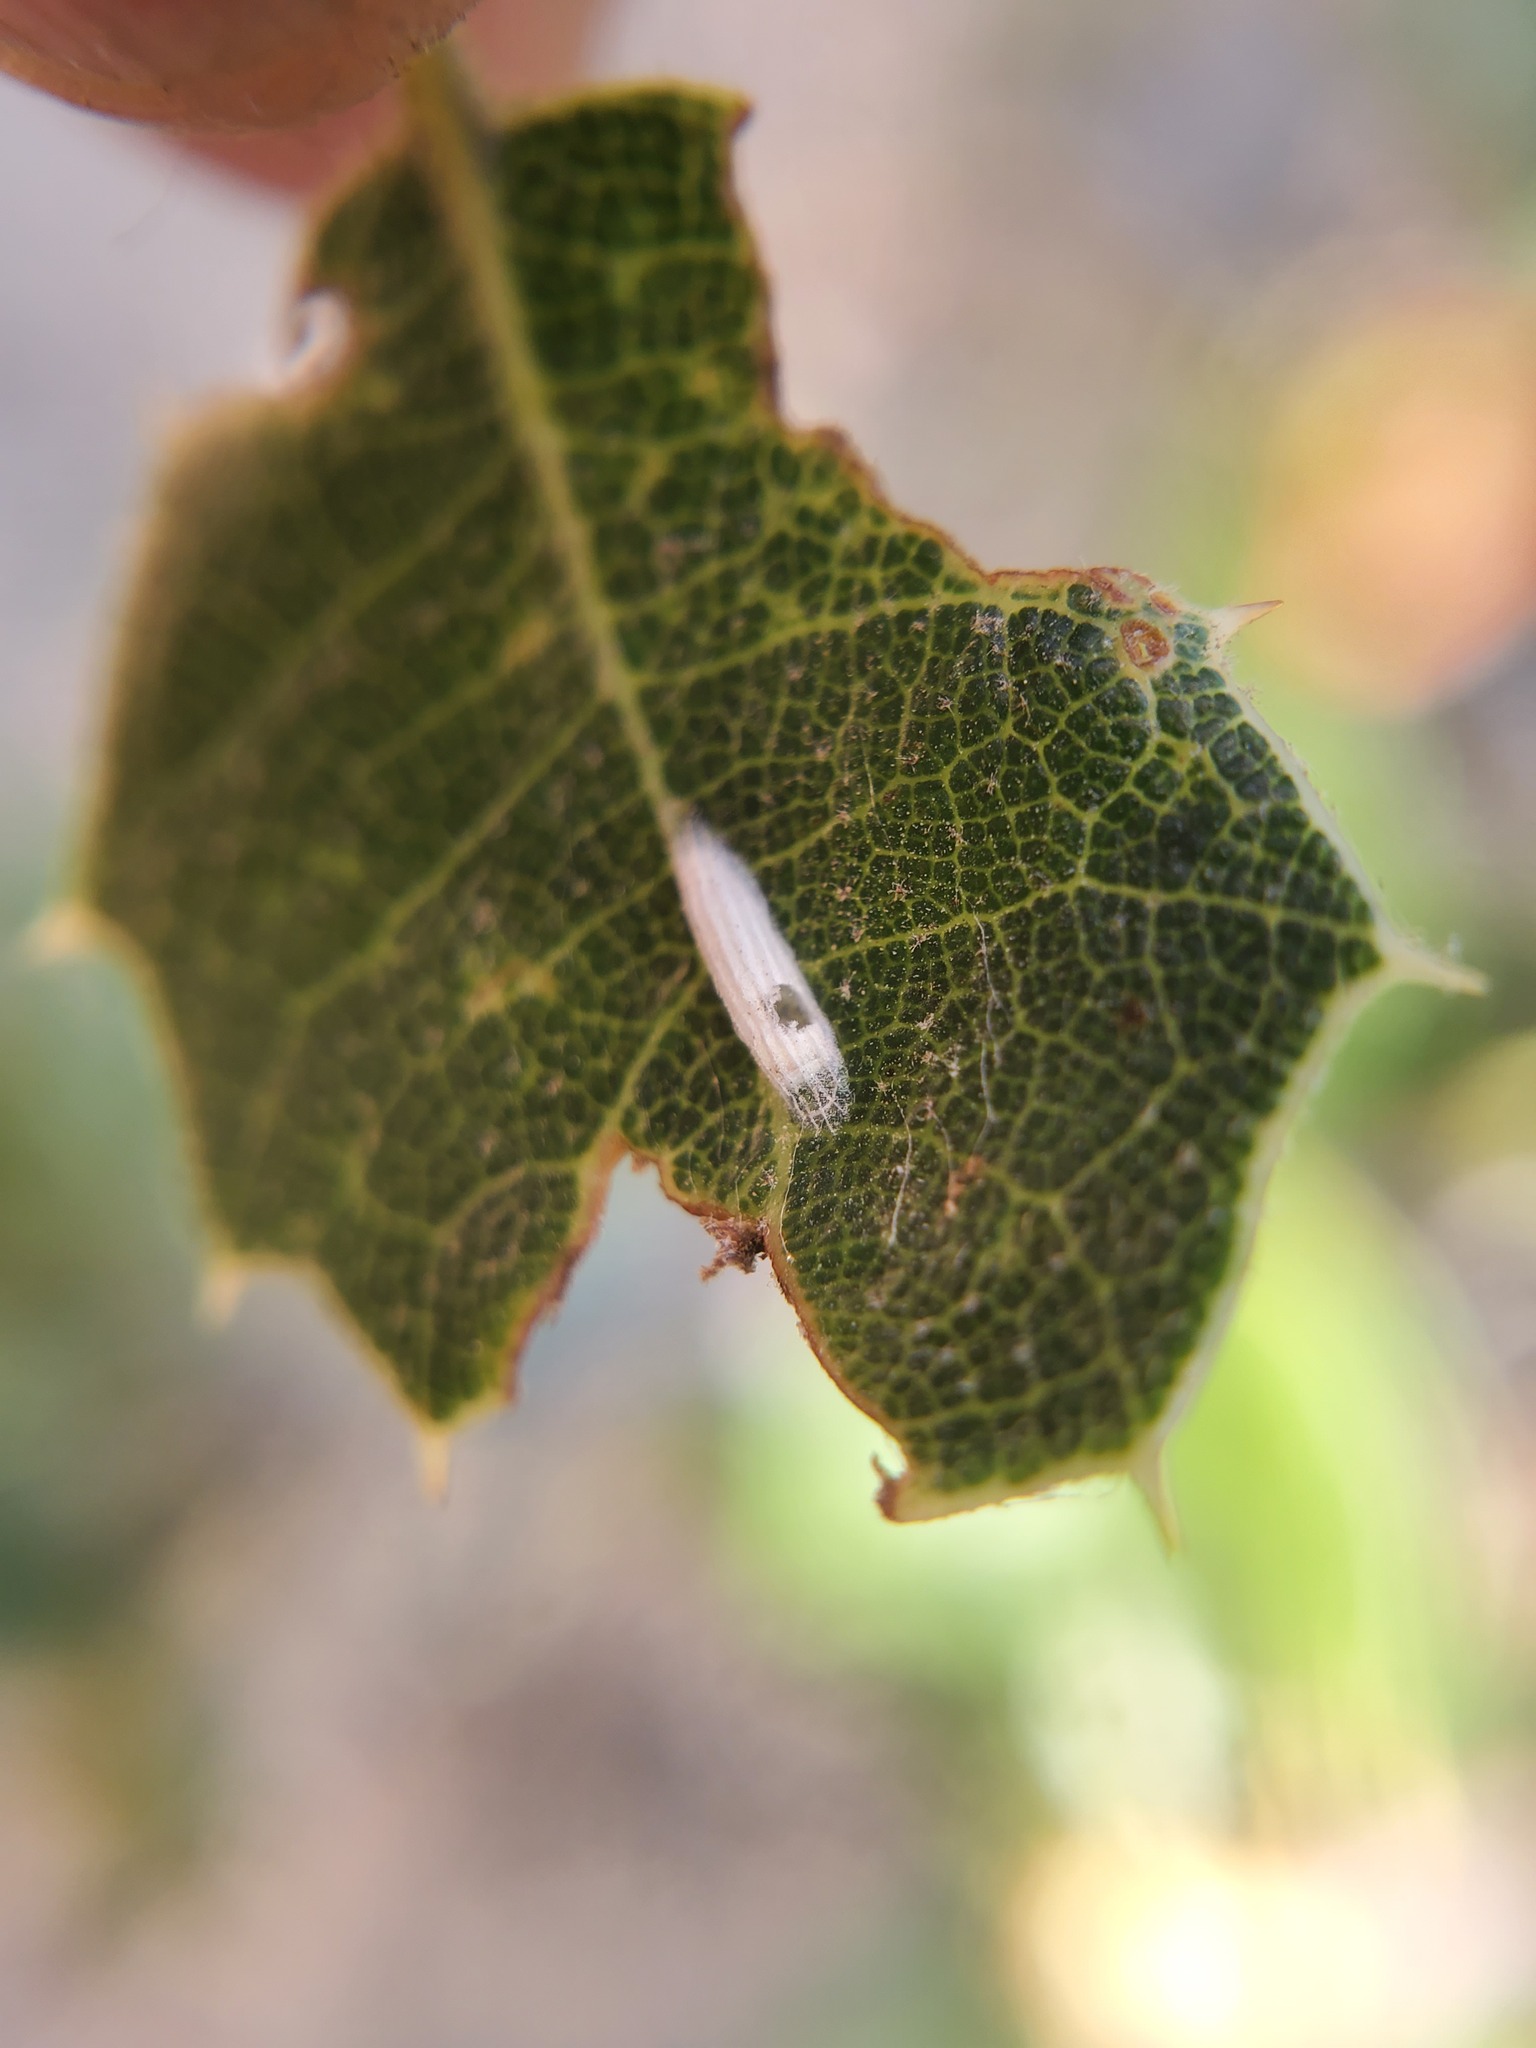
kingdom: Animalia
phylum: Arthropoda
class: Insecta
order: Lepidoptera
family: Bucculatricidae
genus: Bucculatrix
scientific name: Bucculatrix albertiella
